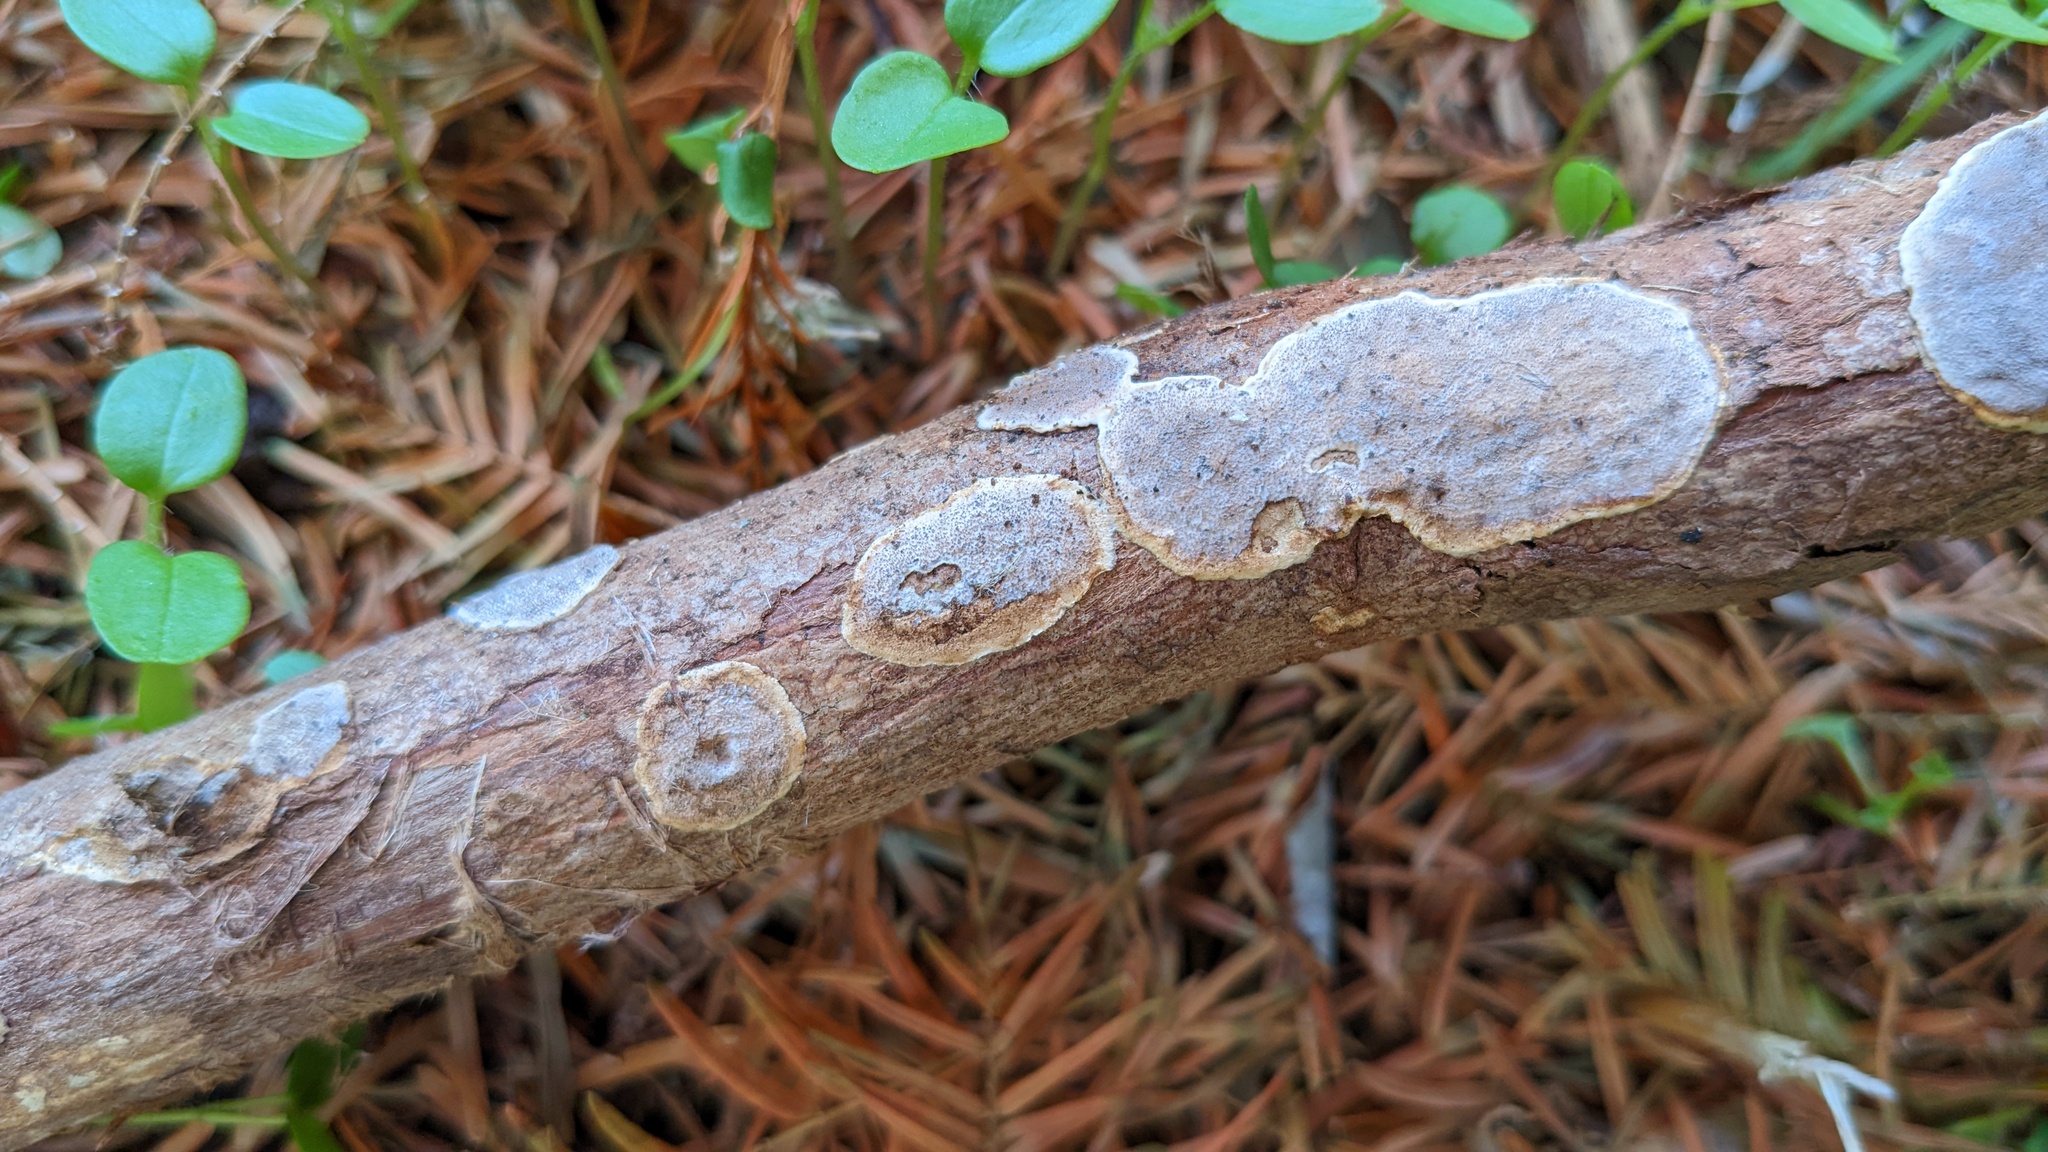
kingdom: Fungi
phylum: Basidiomycota
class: Agaricomycetes
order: Auriculariales
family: Auriculariaceae
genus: Heterochaete
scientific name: Heterochaete delicata
